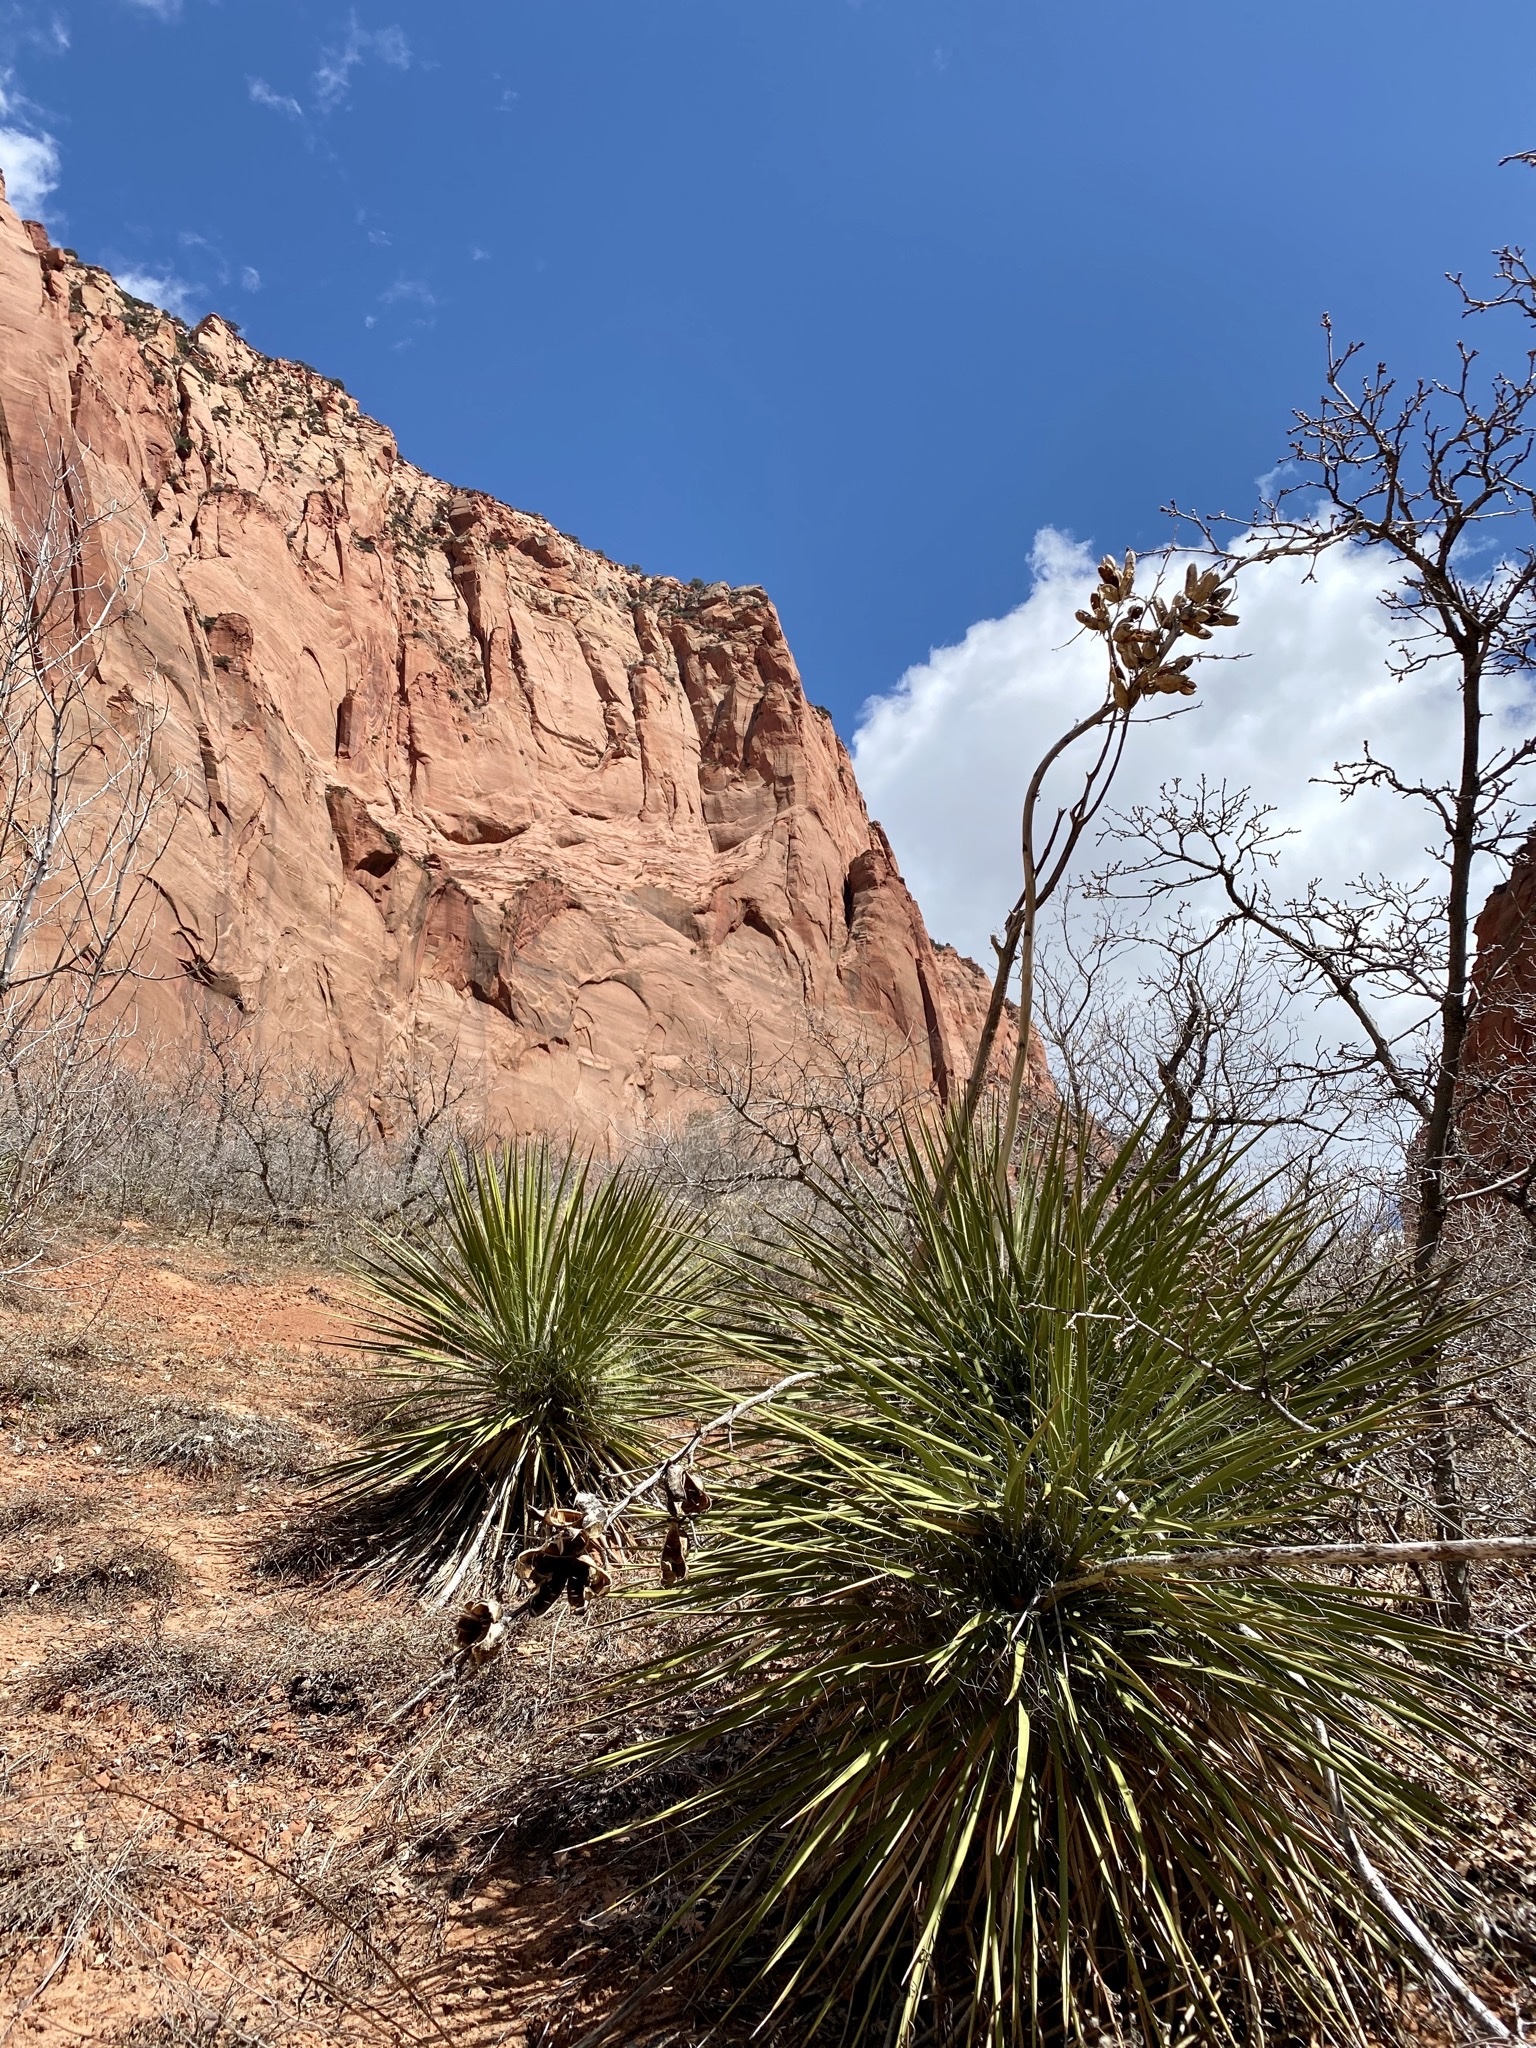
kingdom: Plantae
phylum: Tracheophyta
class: Liliopsida
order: Asparagales
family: Asparagaceae
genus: Yucca
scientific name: Yucca angustissima
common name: Narrowleaf yucca
